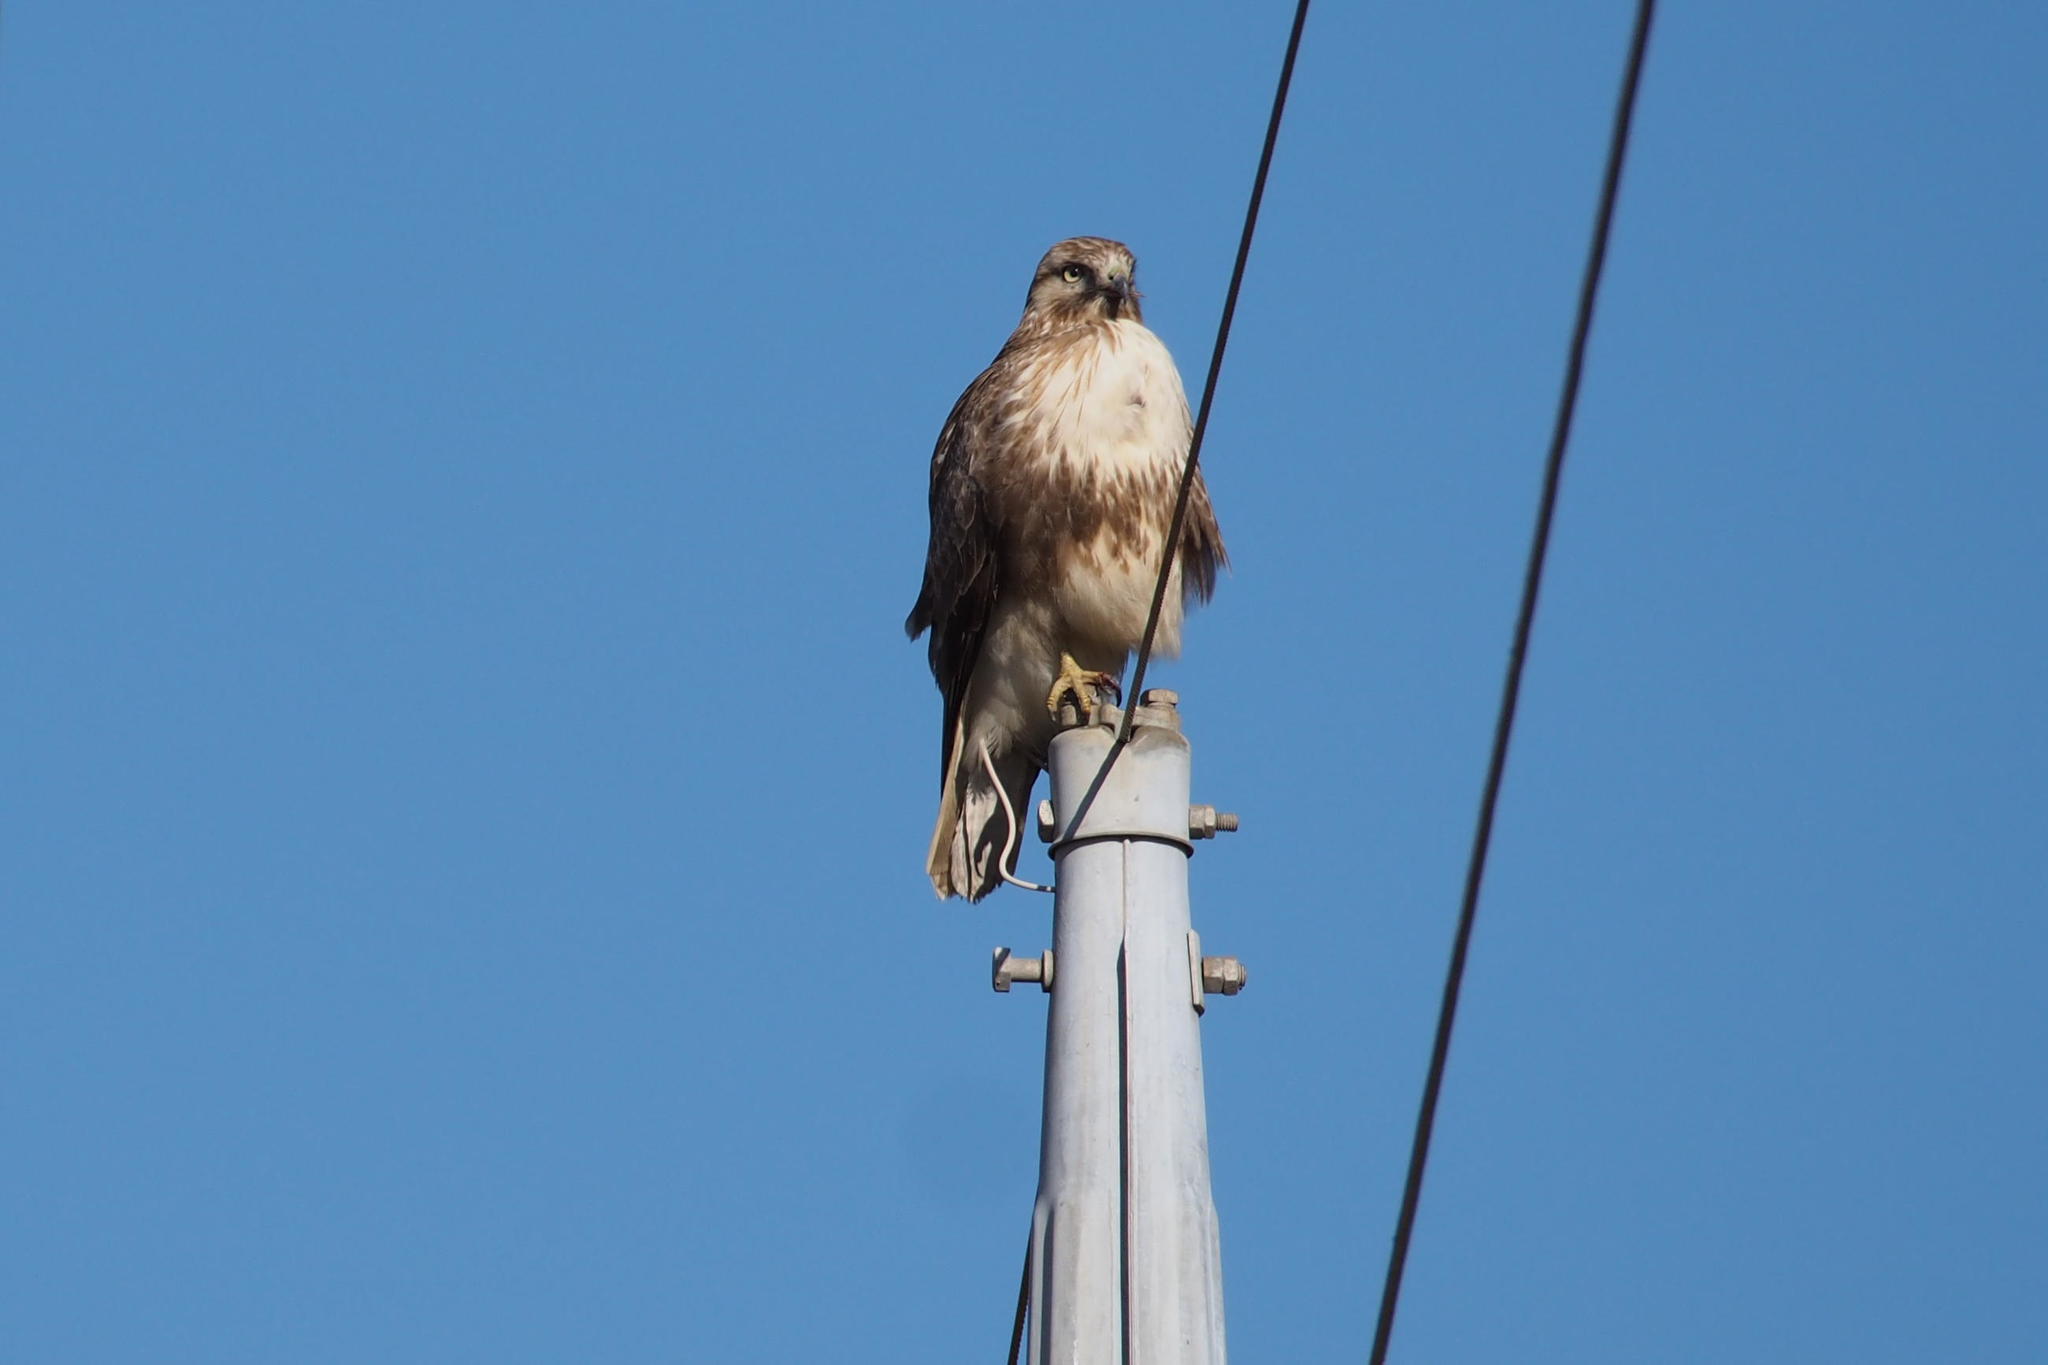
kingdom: Animalia
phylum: Chordata
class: Aves
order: Accipitriformes
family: Accipitridae
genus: Buteo
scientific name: Buteo japonicus
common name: Eastern buzzard
